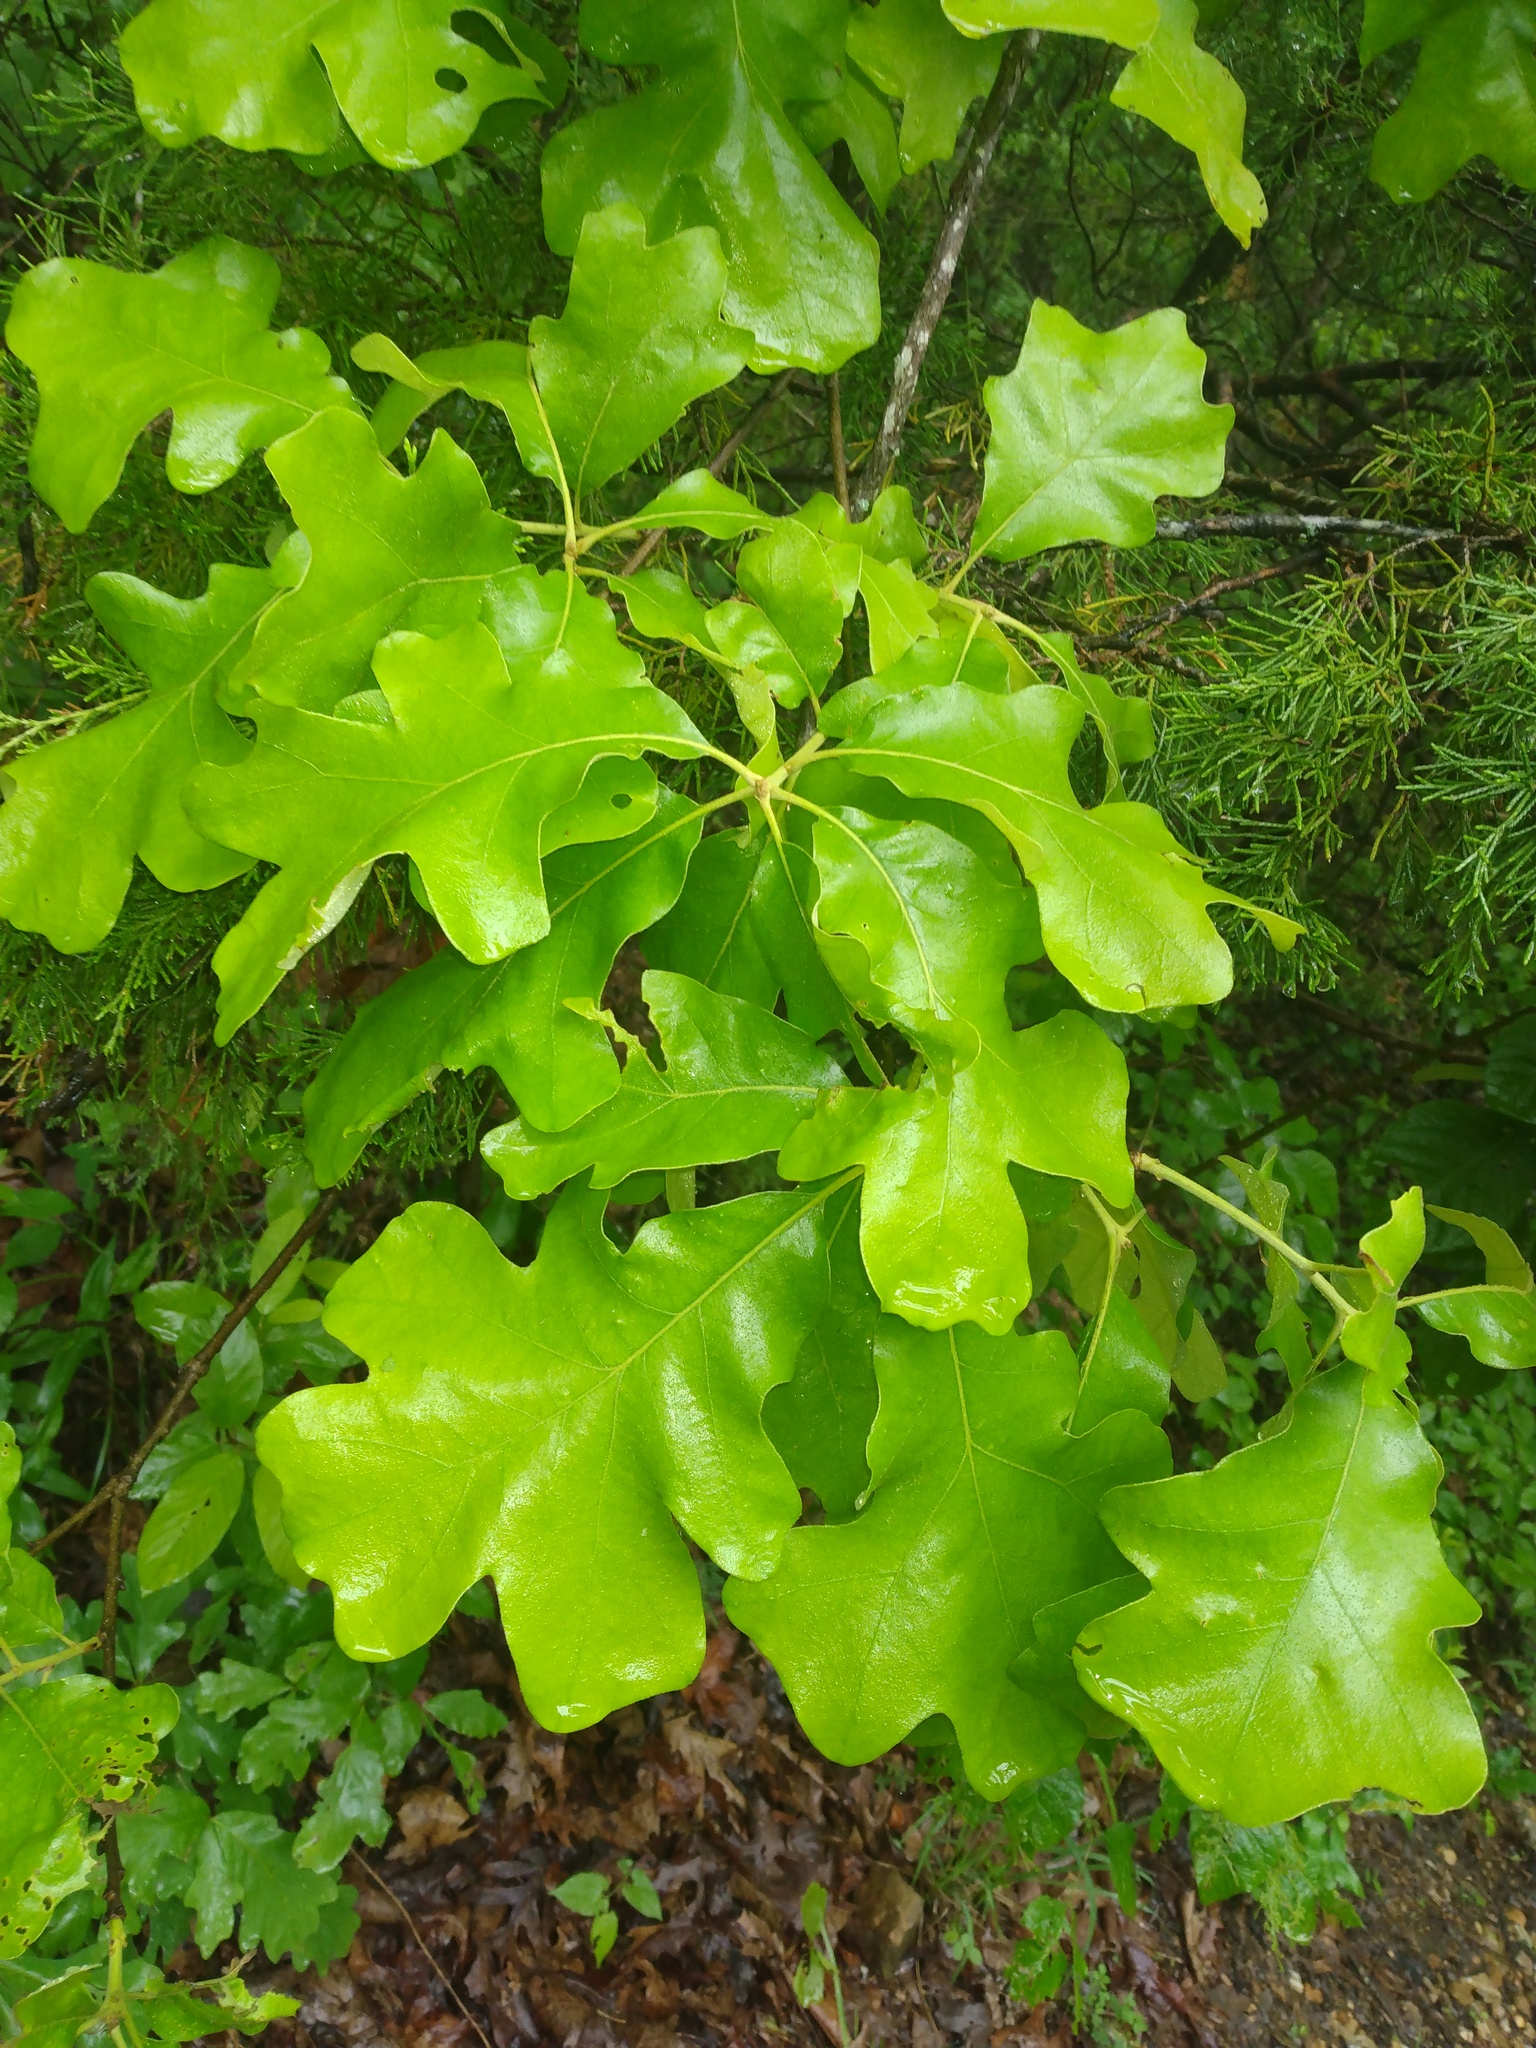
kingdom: Plantae
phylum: Tracheophyta
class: Magnoliopsida
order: Fagales
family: Fagaceae
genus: Quercus
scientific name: Quercus stellata
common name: Post oak
